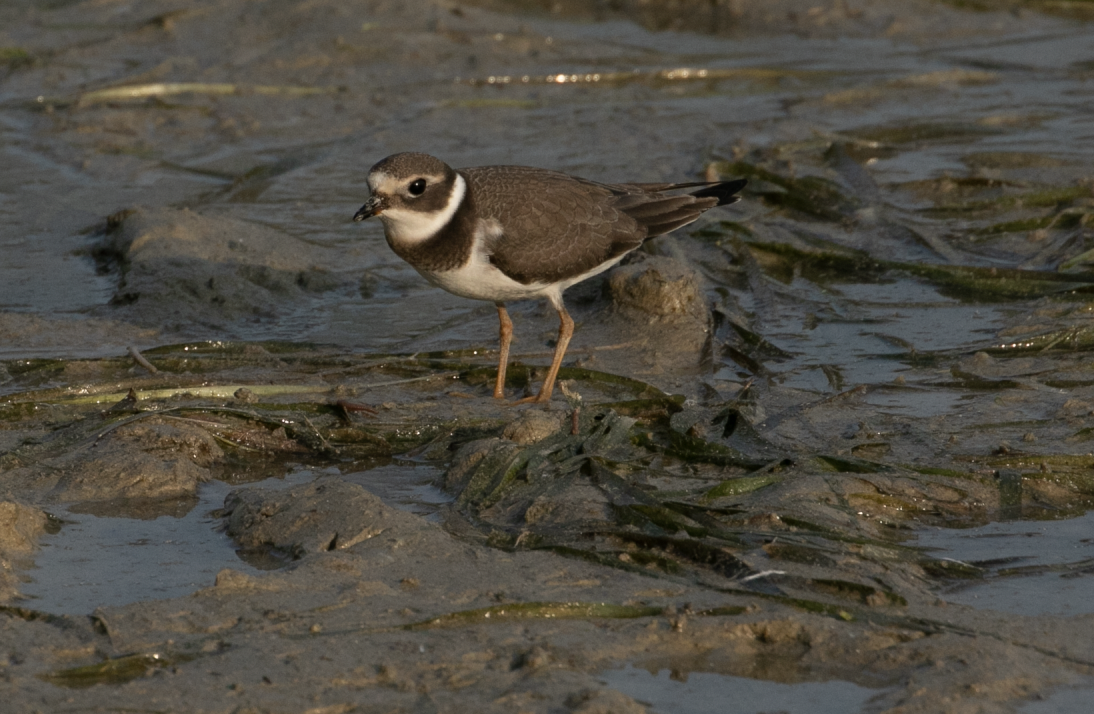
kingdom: Animalia
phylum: Chordata
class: Aves
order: Charadriiformes
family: Charadriidae
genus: Charadrius
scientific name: Charadrius hiaticula
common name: Common ringed plover
